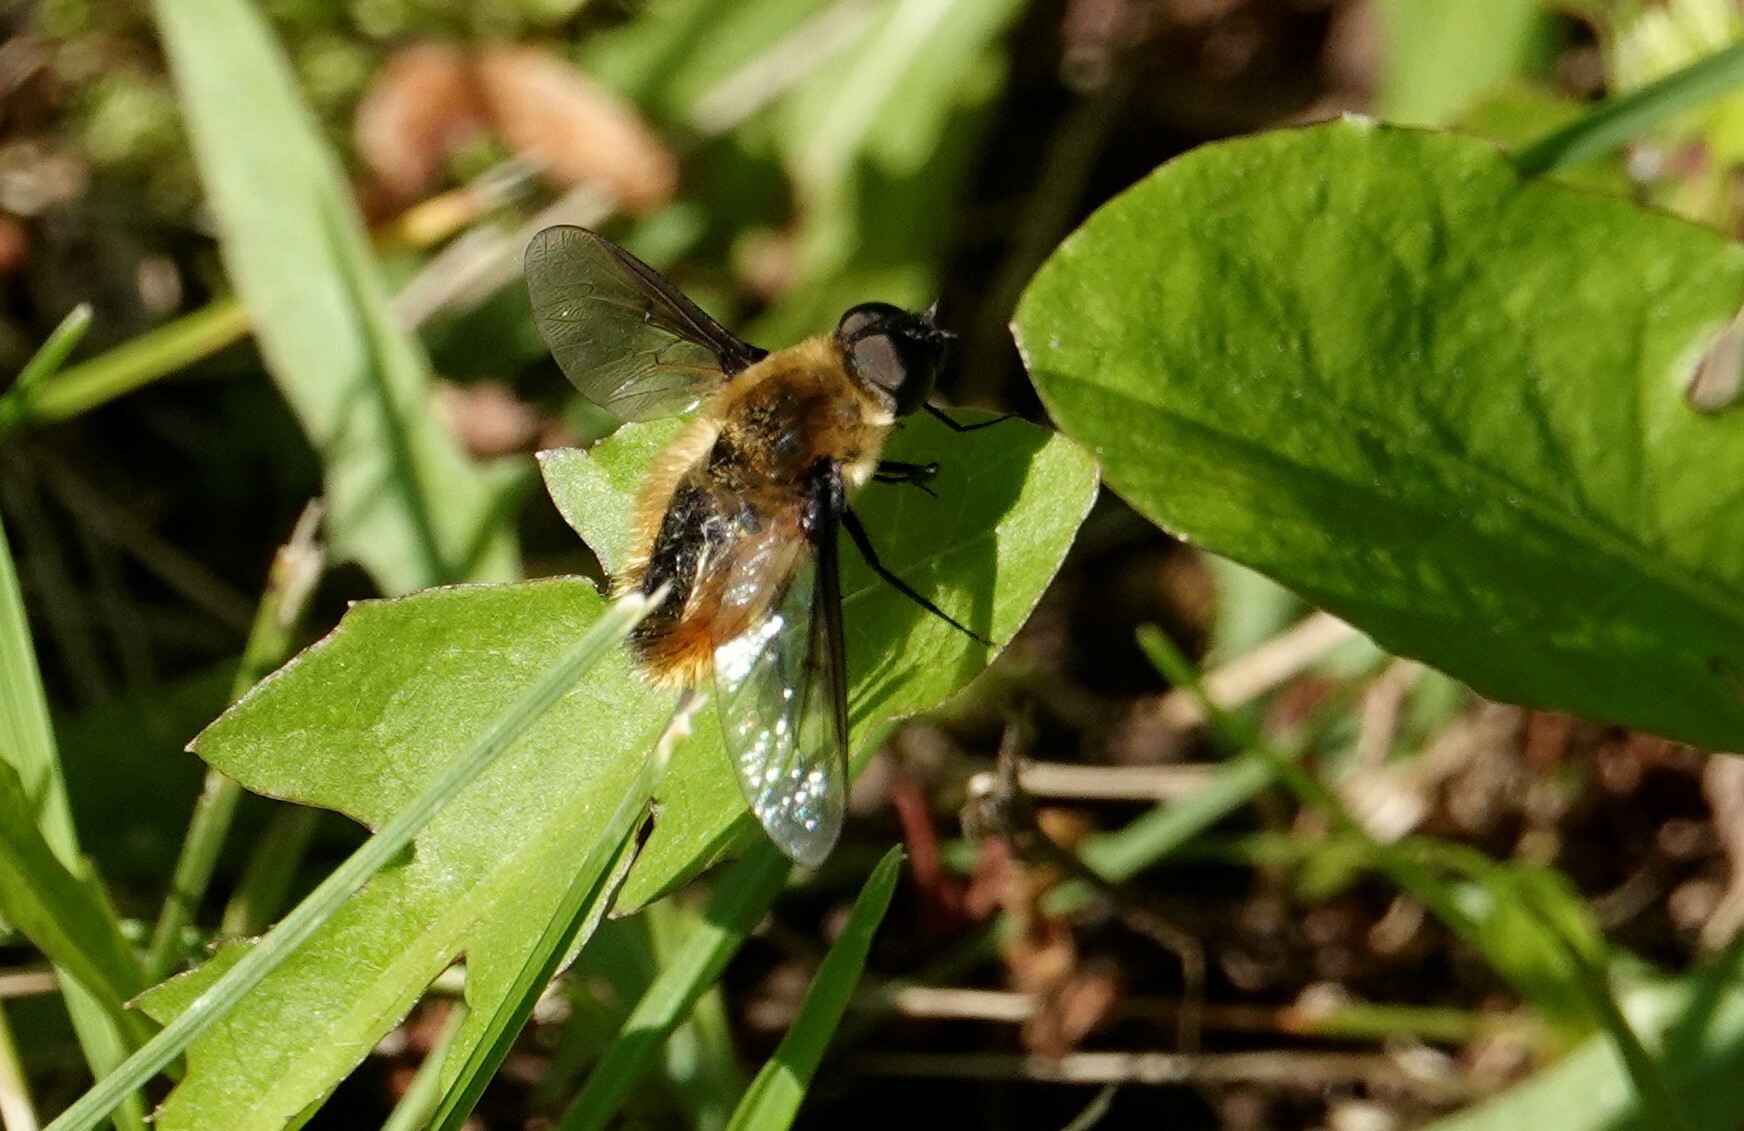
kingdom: Animalia
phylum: Arthropoda
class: Insecta
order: Diptera
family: Bombyliidae
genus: Villa
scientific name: Villa fulviana
